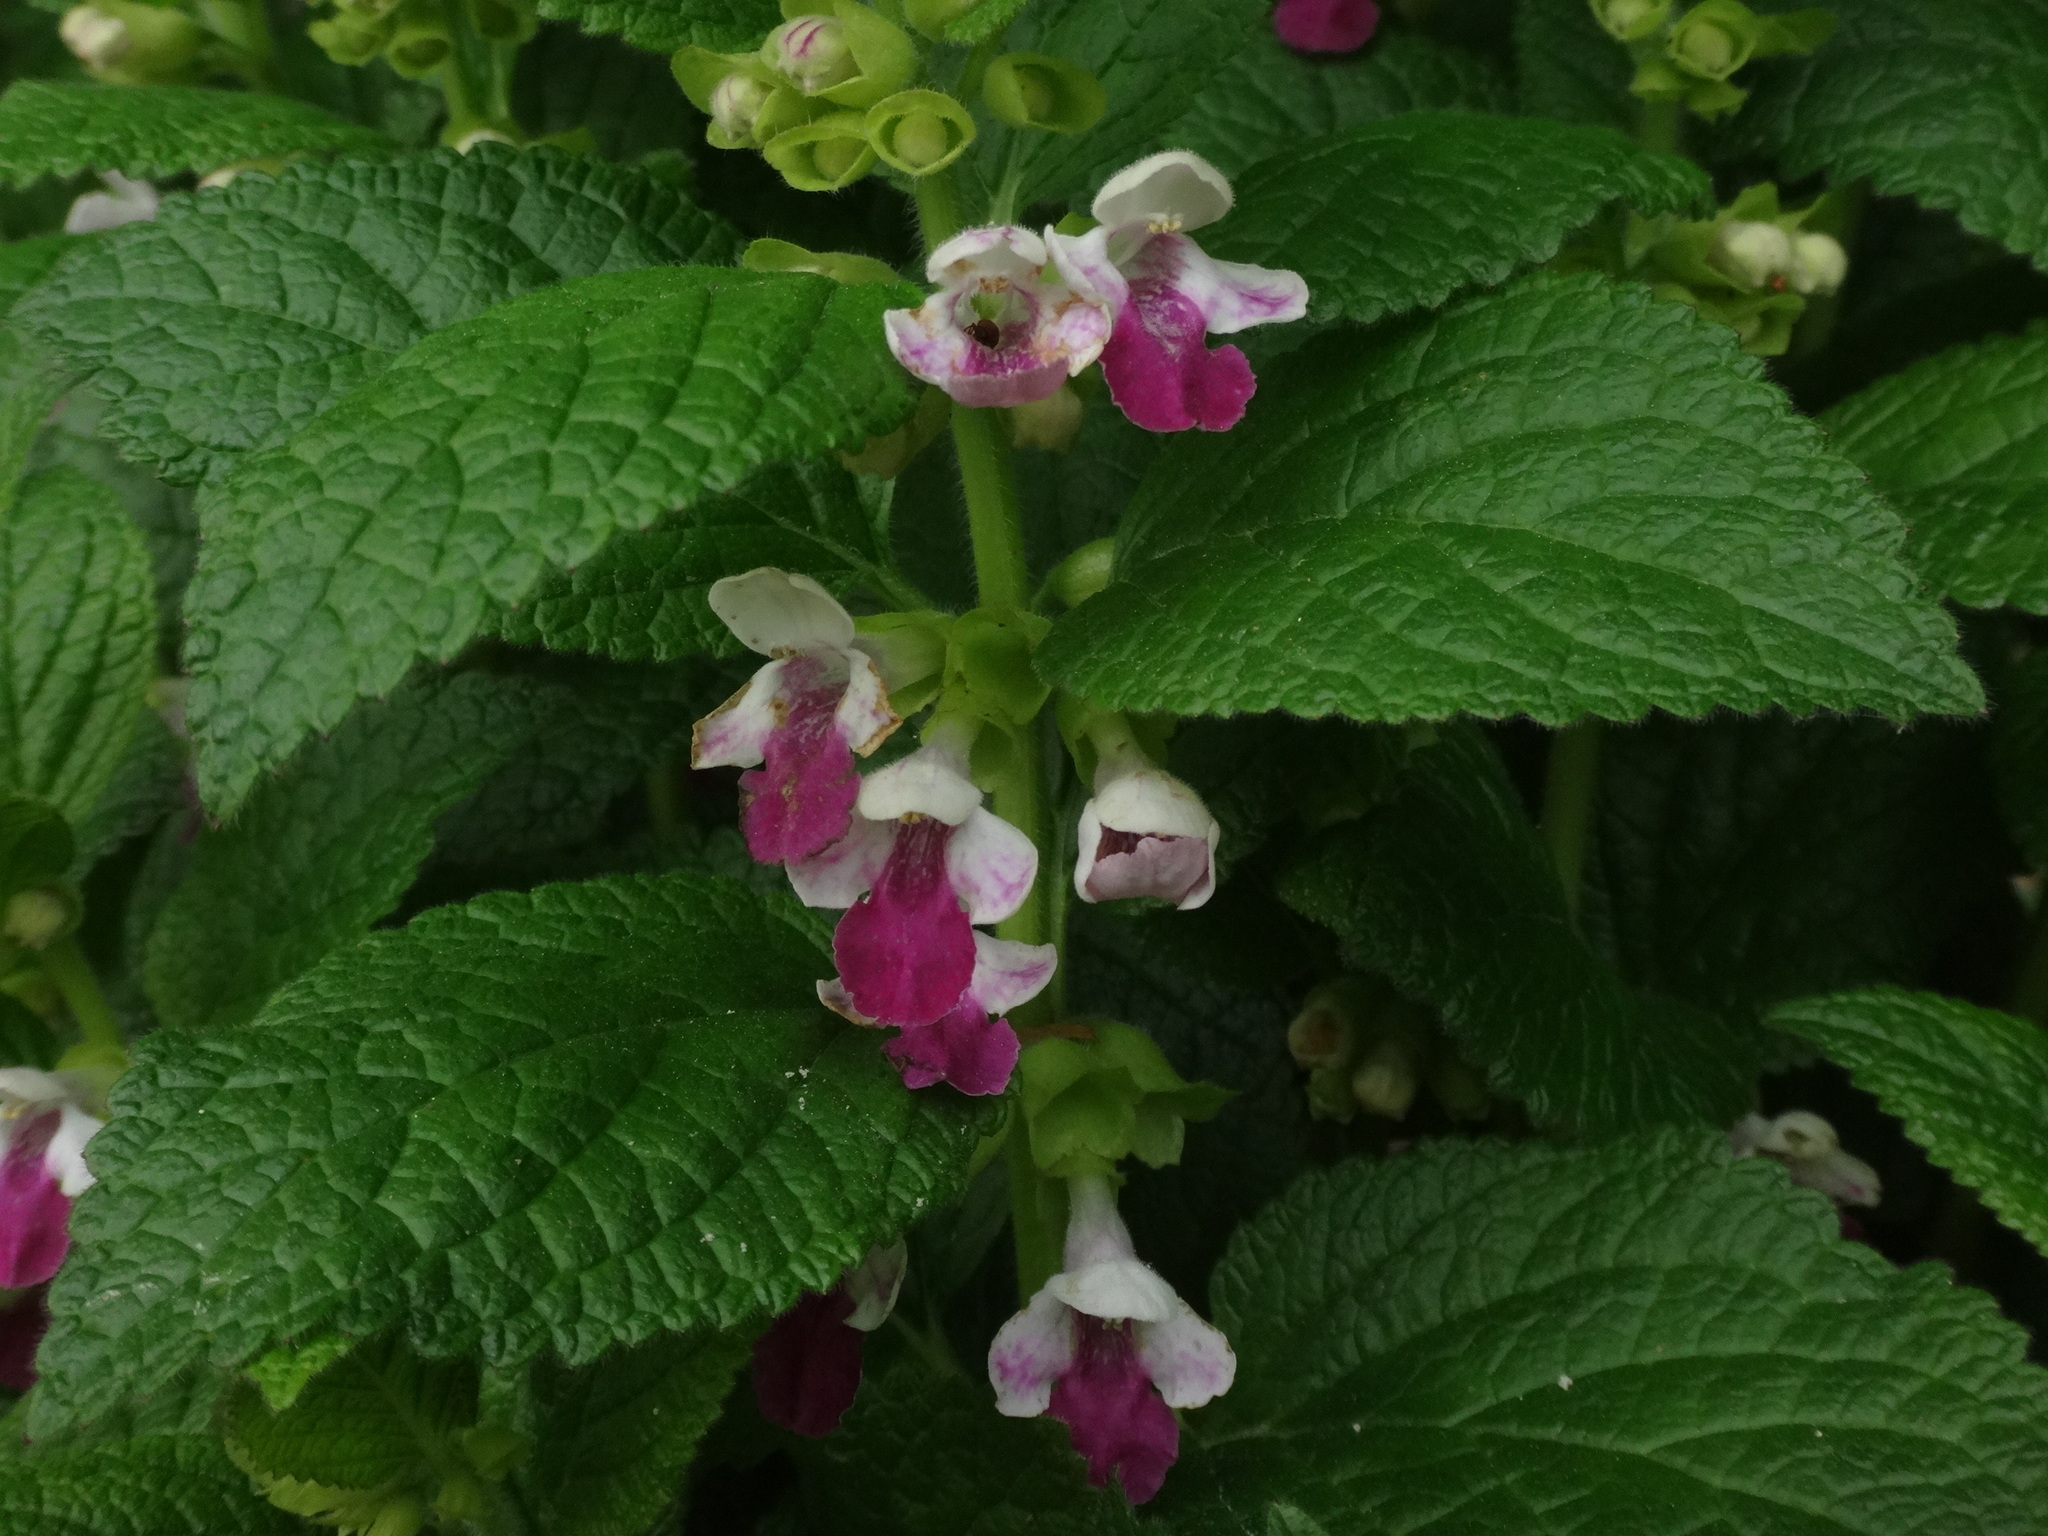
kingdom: Plantae
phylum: Tracheophyta
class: Magnoliopsida
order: Lamiales
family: Lamiaceae
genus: Melittis
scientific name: Melittis melissophyllum
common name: Bastard balm
